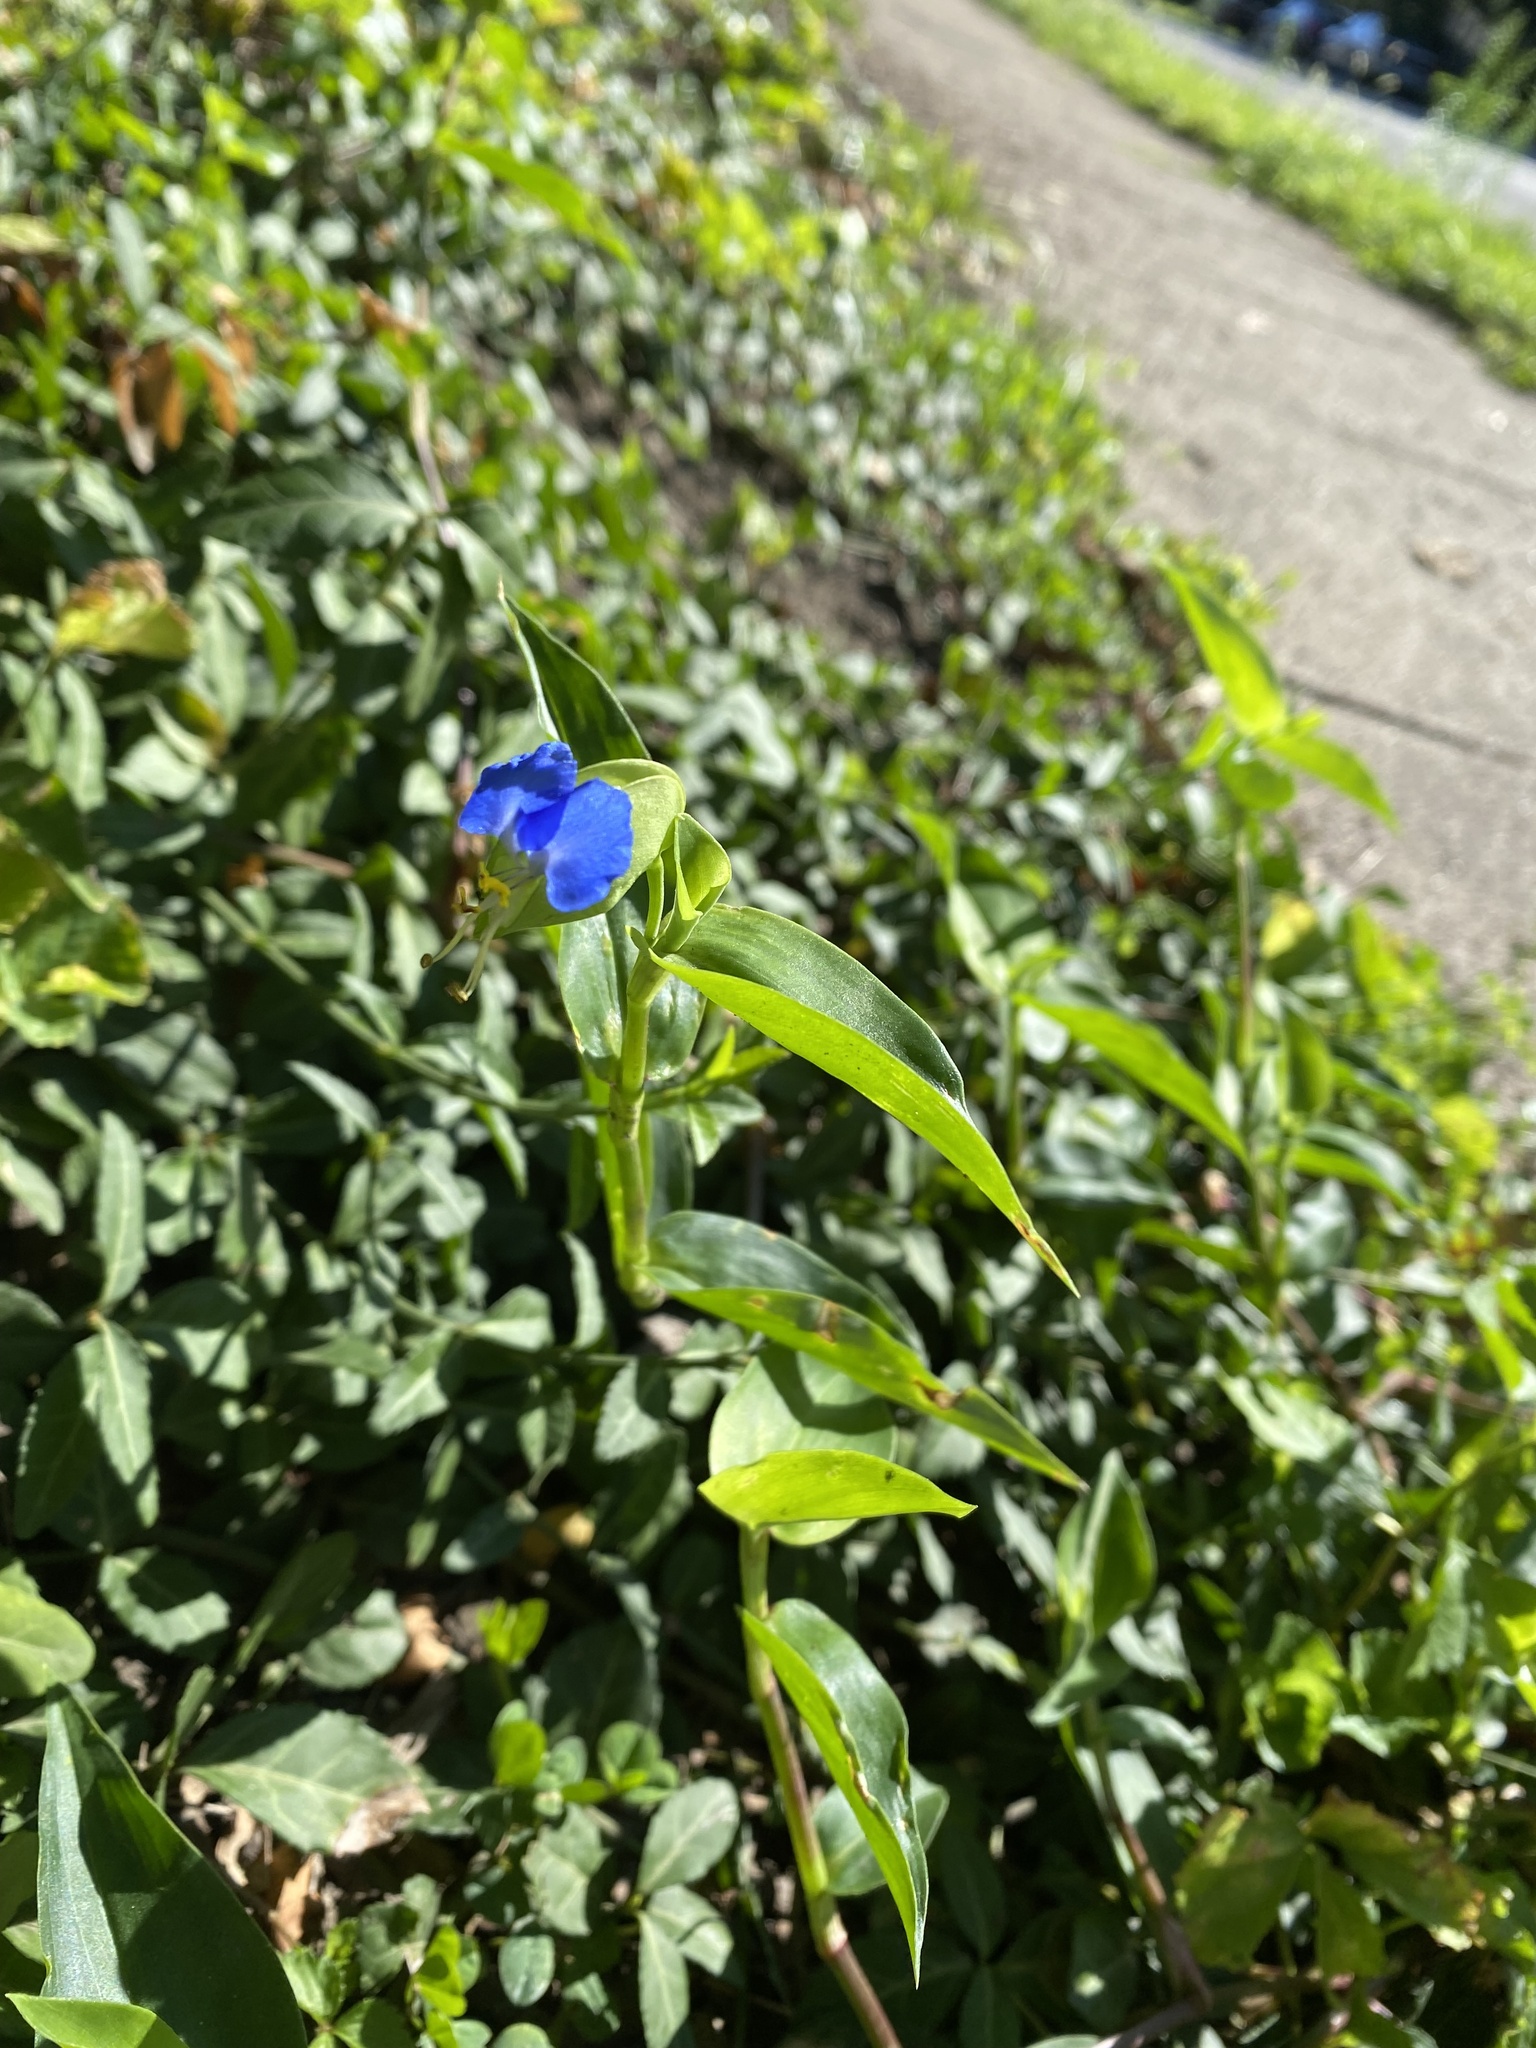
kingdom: Plantae
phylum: Tracheophyta
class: Liliopsida
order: Commelinales
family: Commelinaceae
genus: Commelina
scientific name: Commelina communis
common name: Asiatic dayflower
